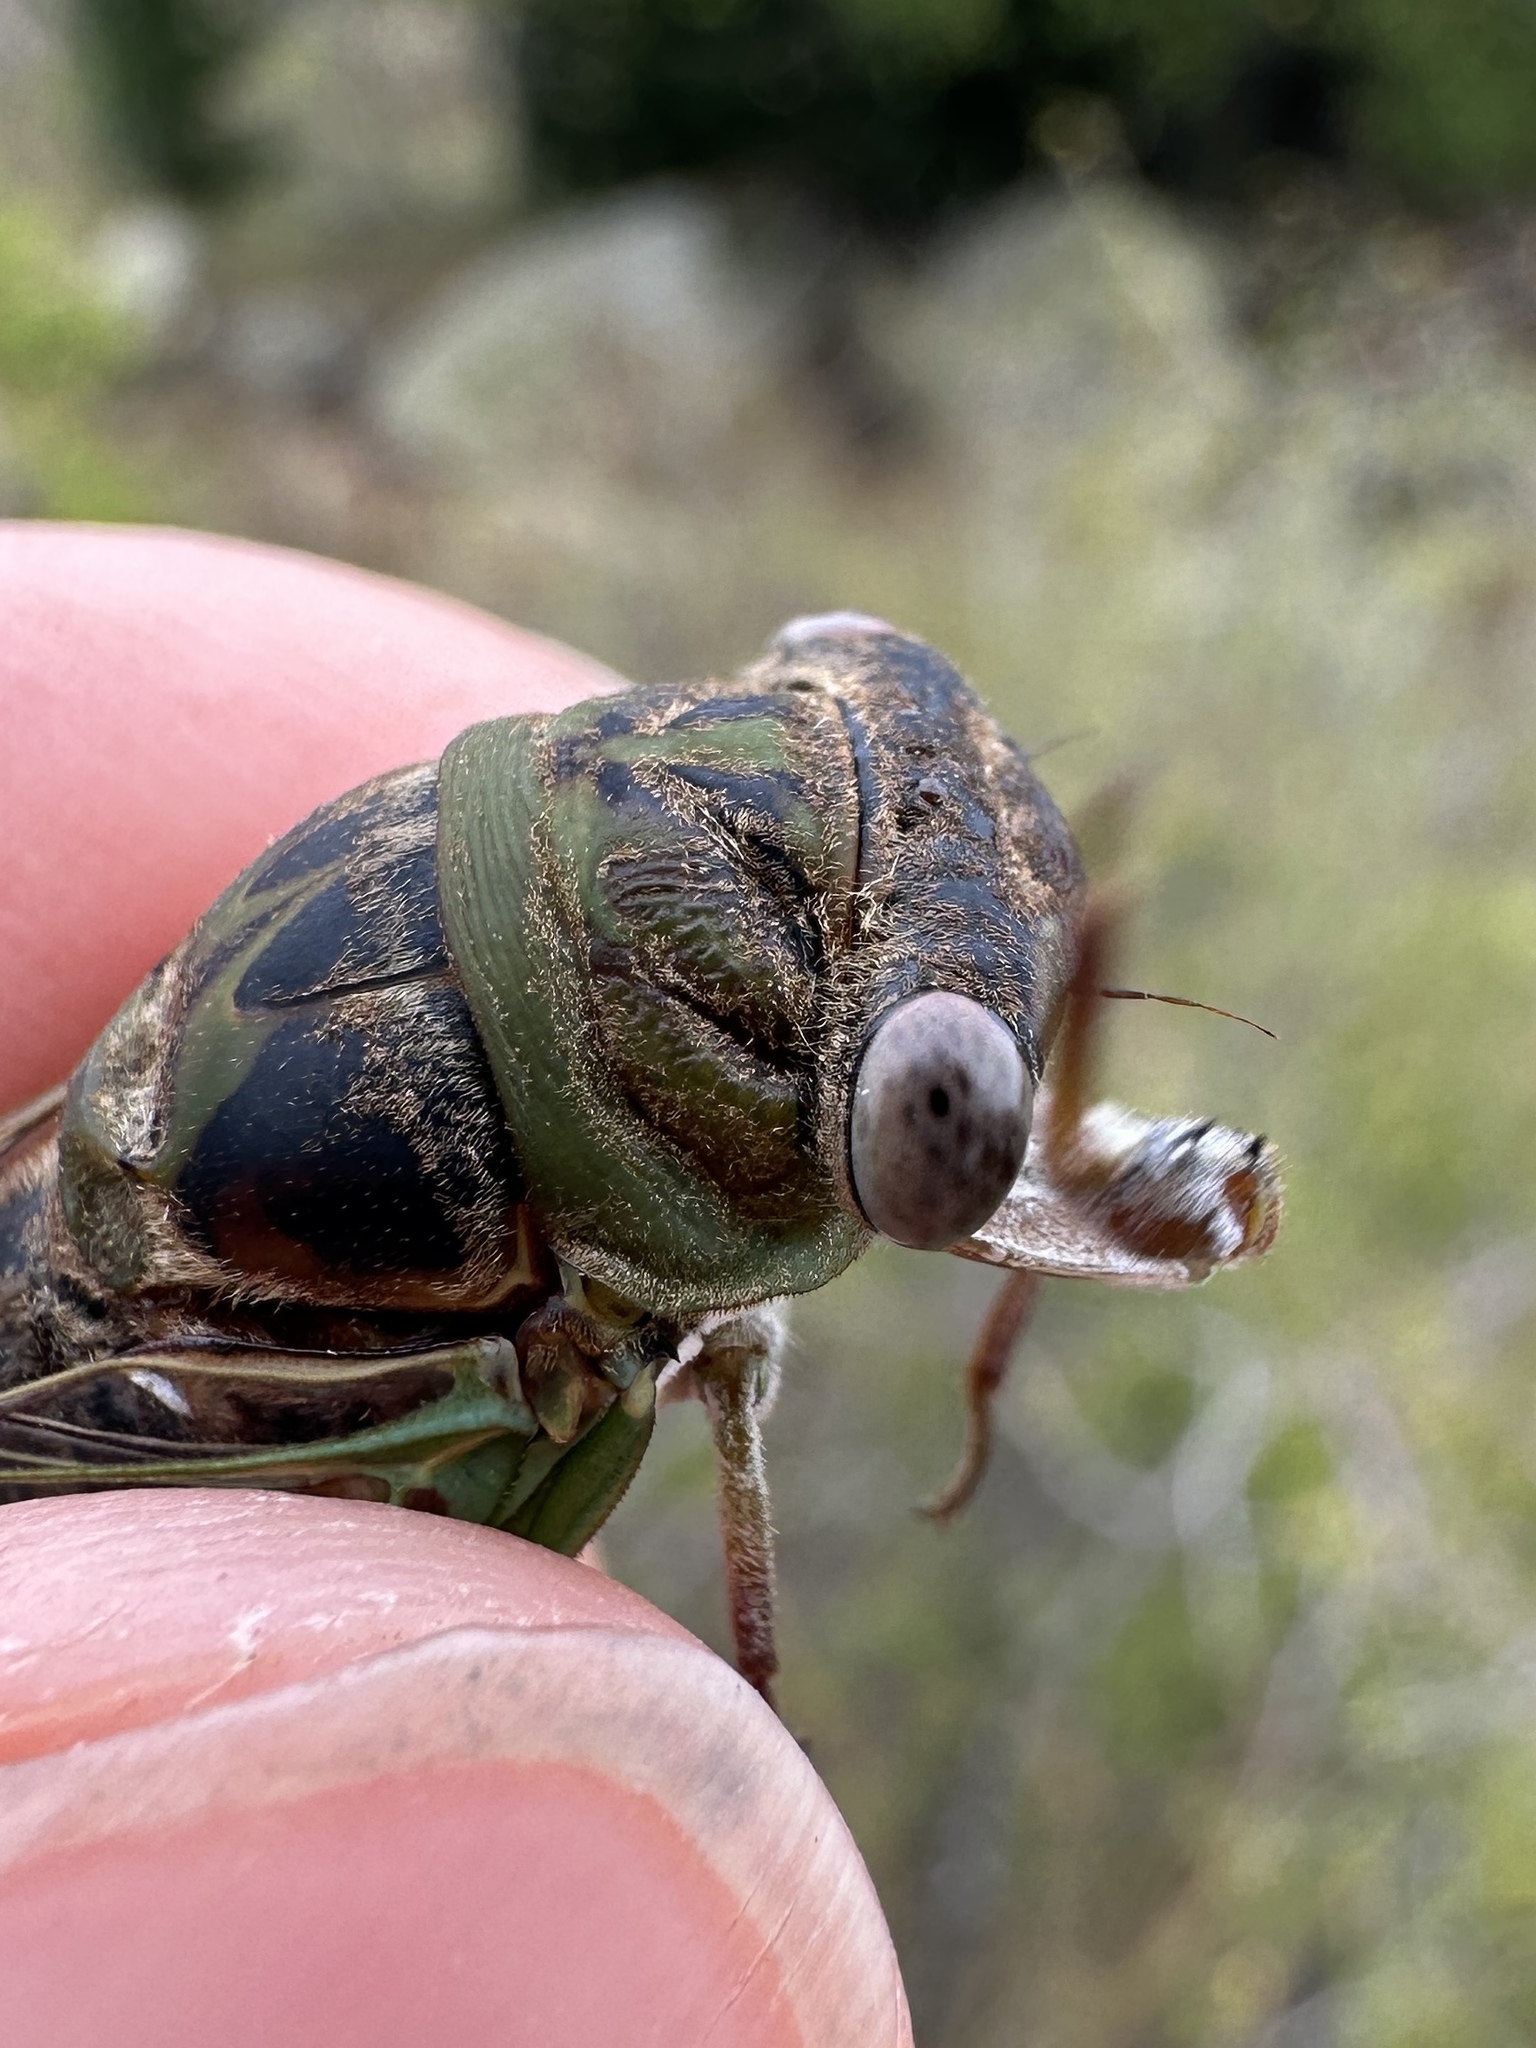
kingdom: Animalia
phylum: Arthropoda
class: Insecta
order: Hemiptera
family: Cicadidae
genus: Neotibicen
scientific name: Neotibicen aurifer
